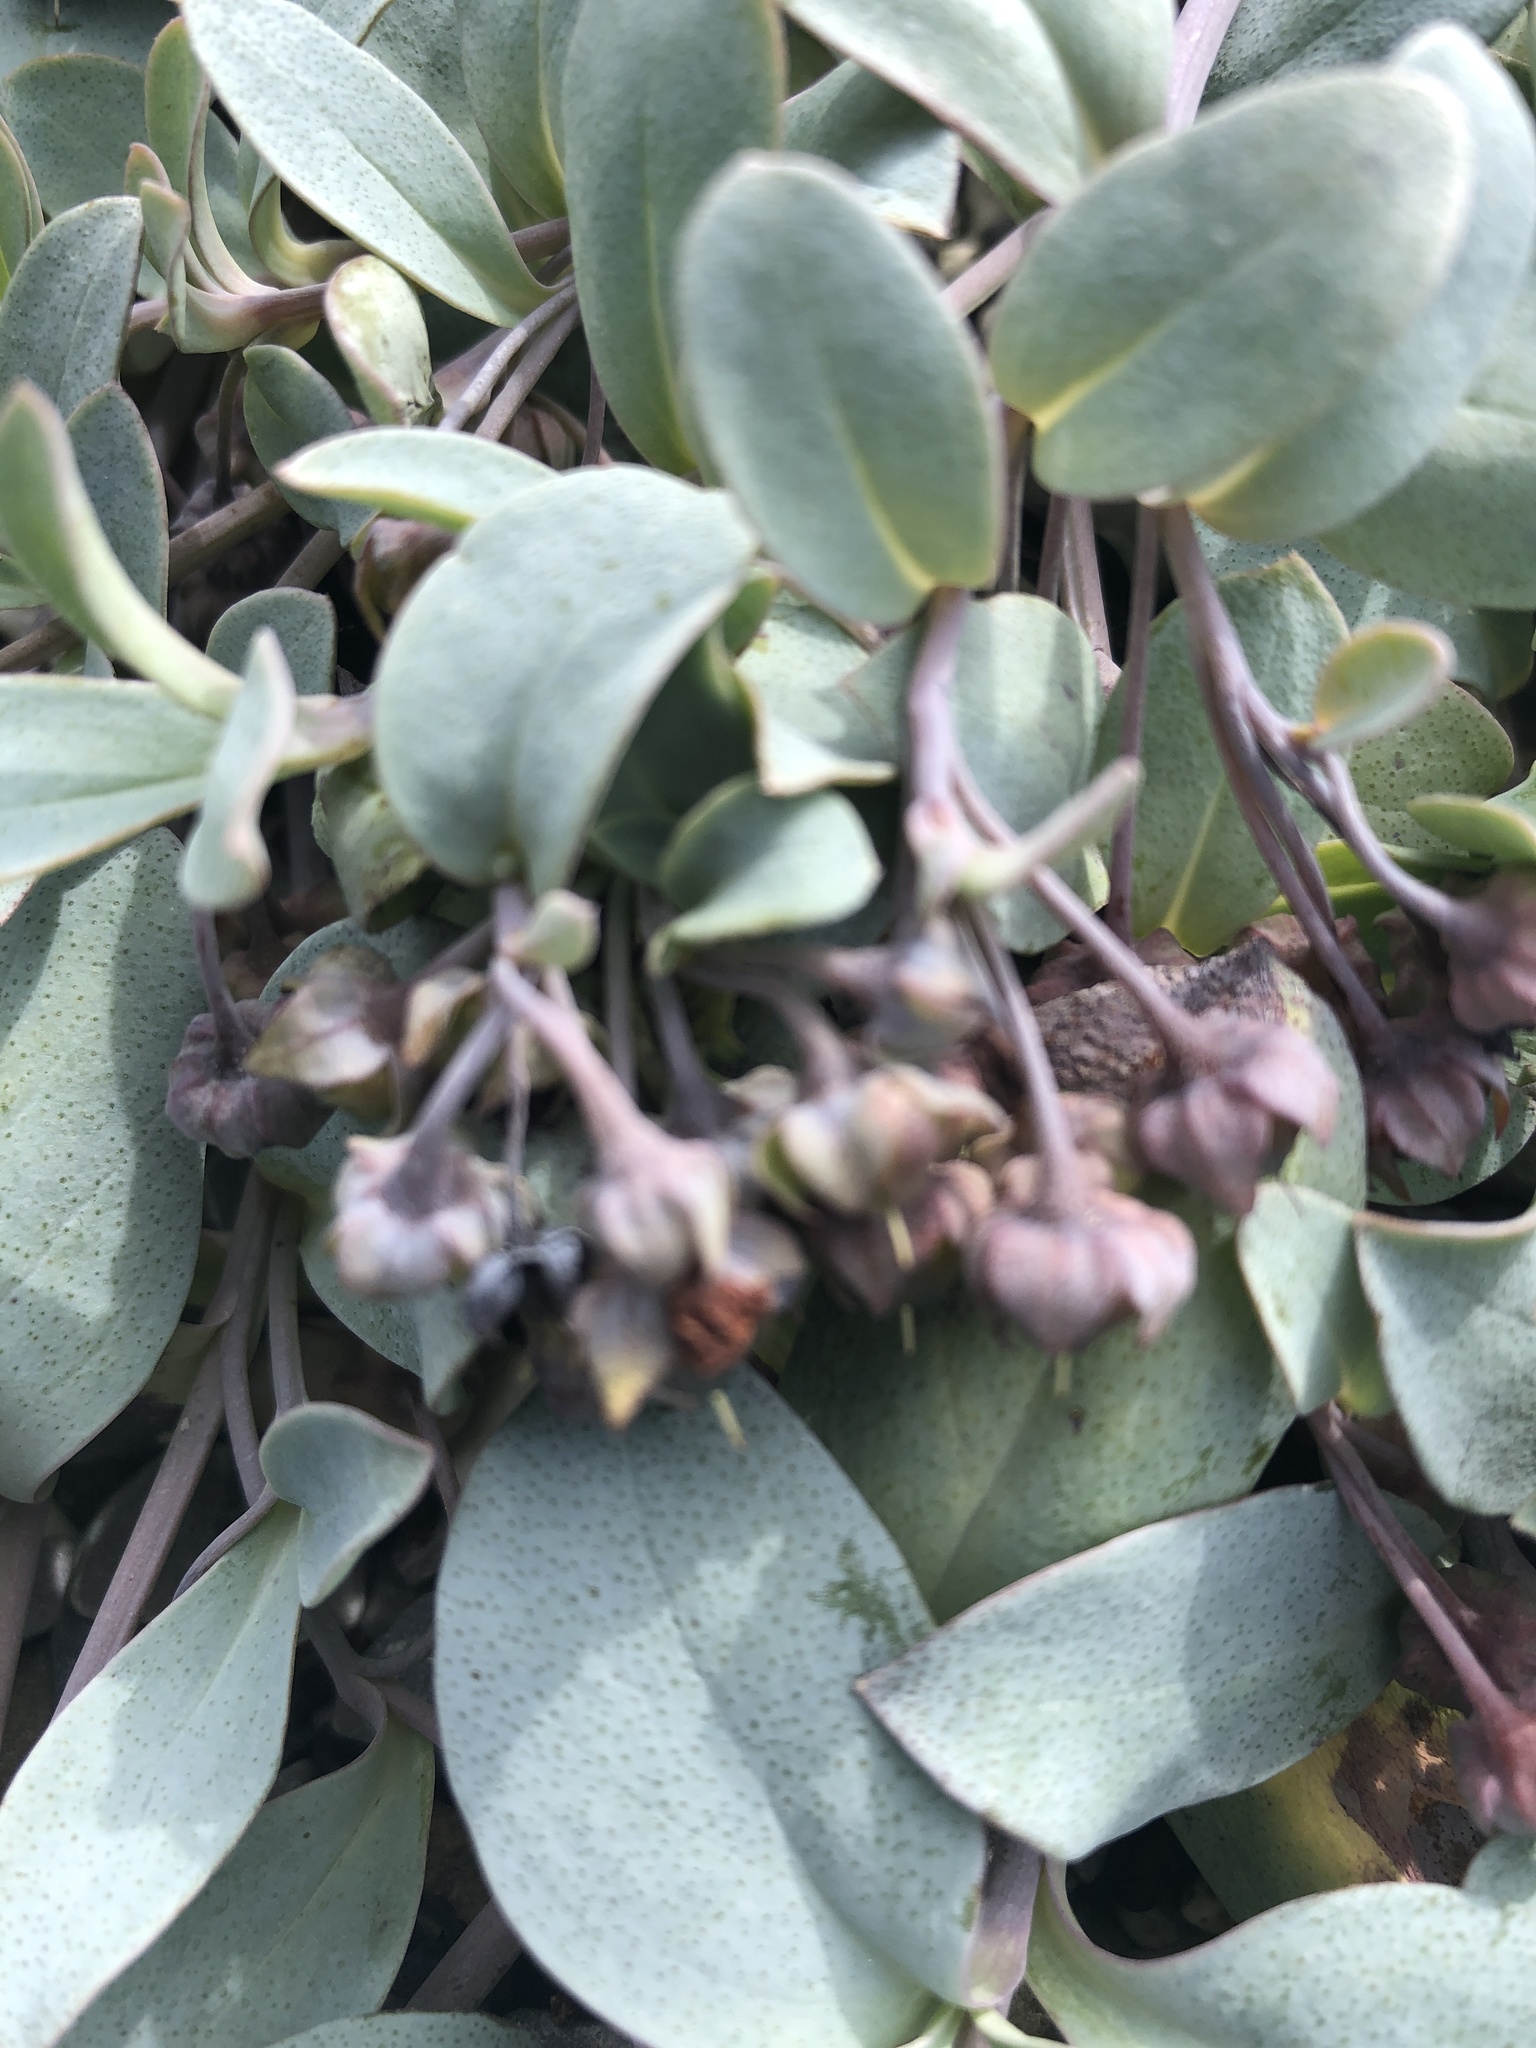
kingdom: Plantae
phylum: Tracheophyta
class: Magnoliopsida
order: Boraginales
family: Boraginaceae
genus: Mertensia
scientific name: Mertensia maritima
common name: Oysterplant
